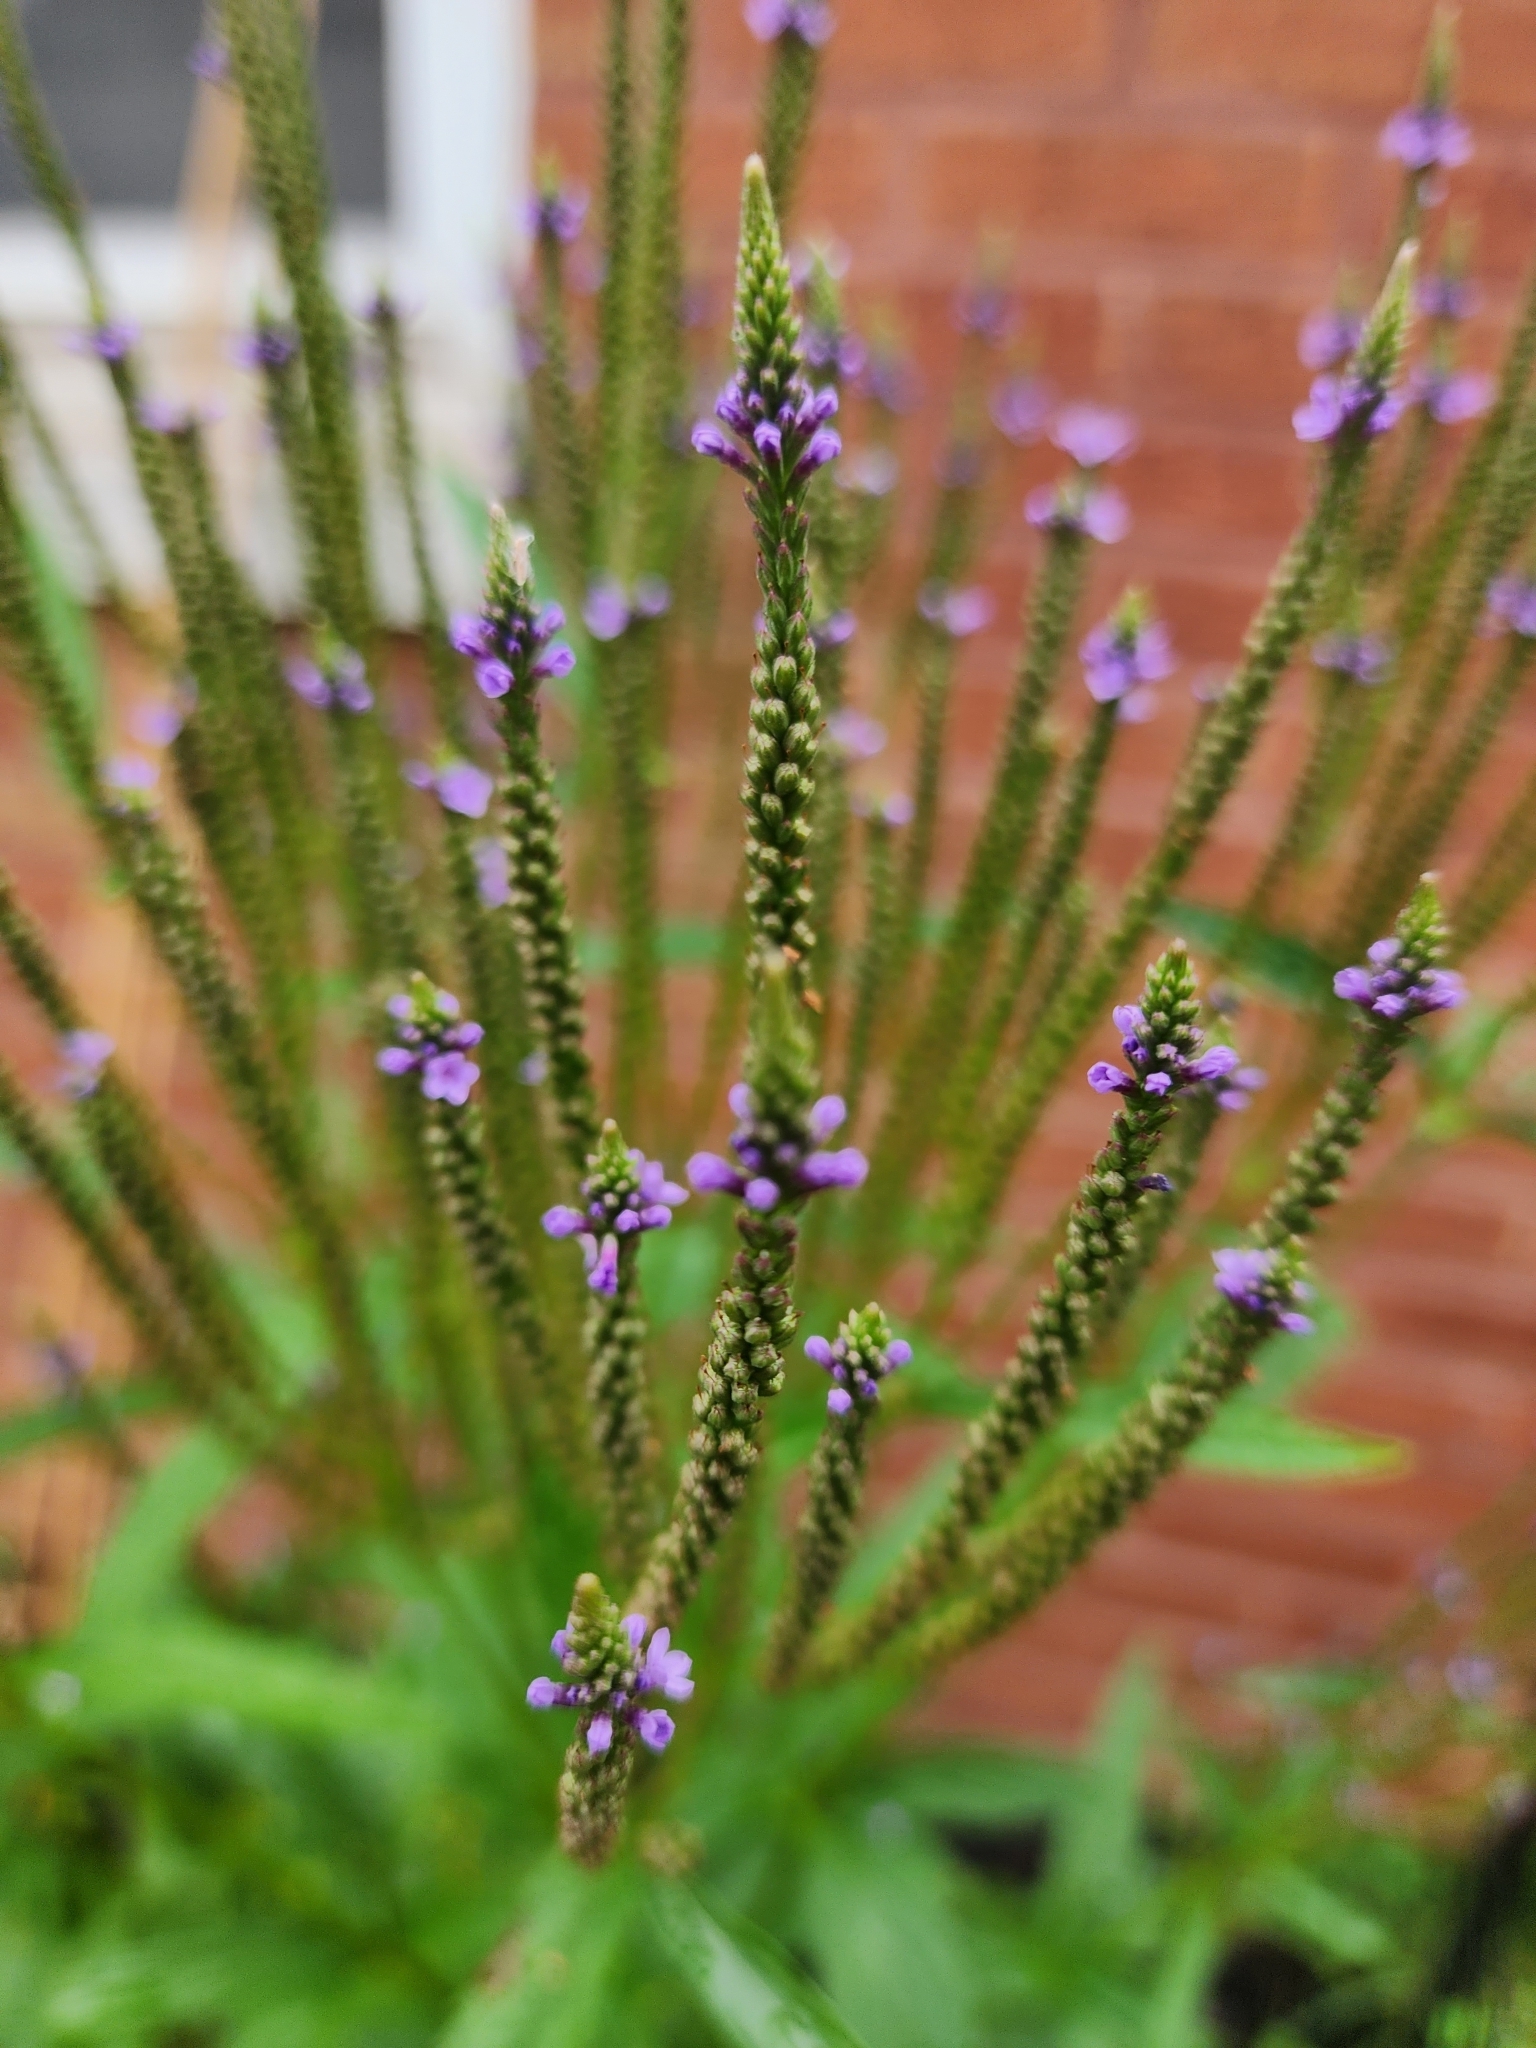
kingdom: Plantae
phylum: Tracheophyta
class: Magnoliopsida
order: Lamiales
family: Verbenaceae
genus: Verbena
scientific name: Verbena hastata
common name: American blue vervain
